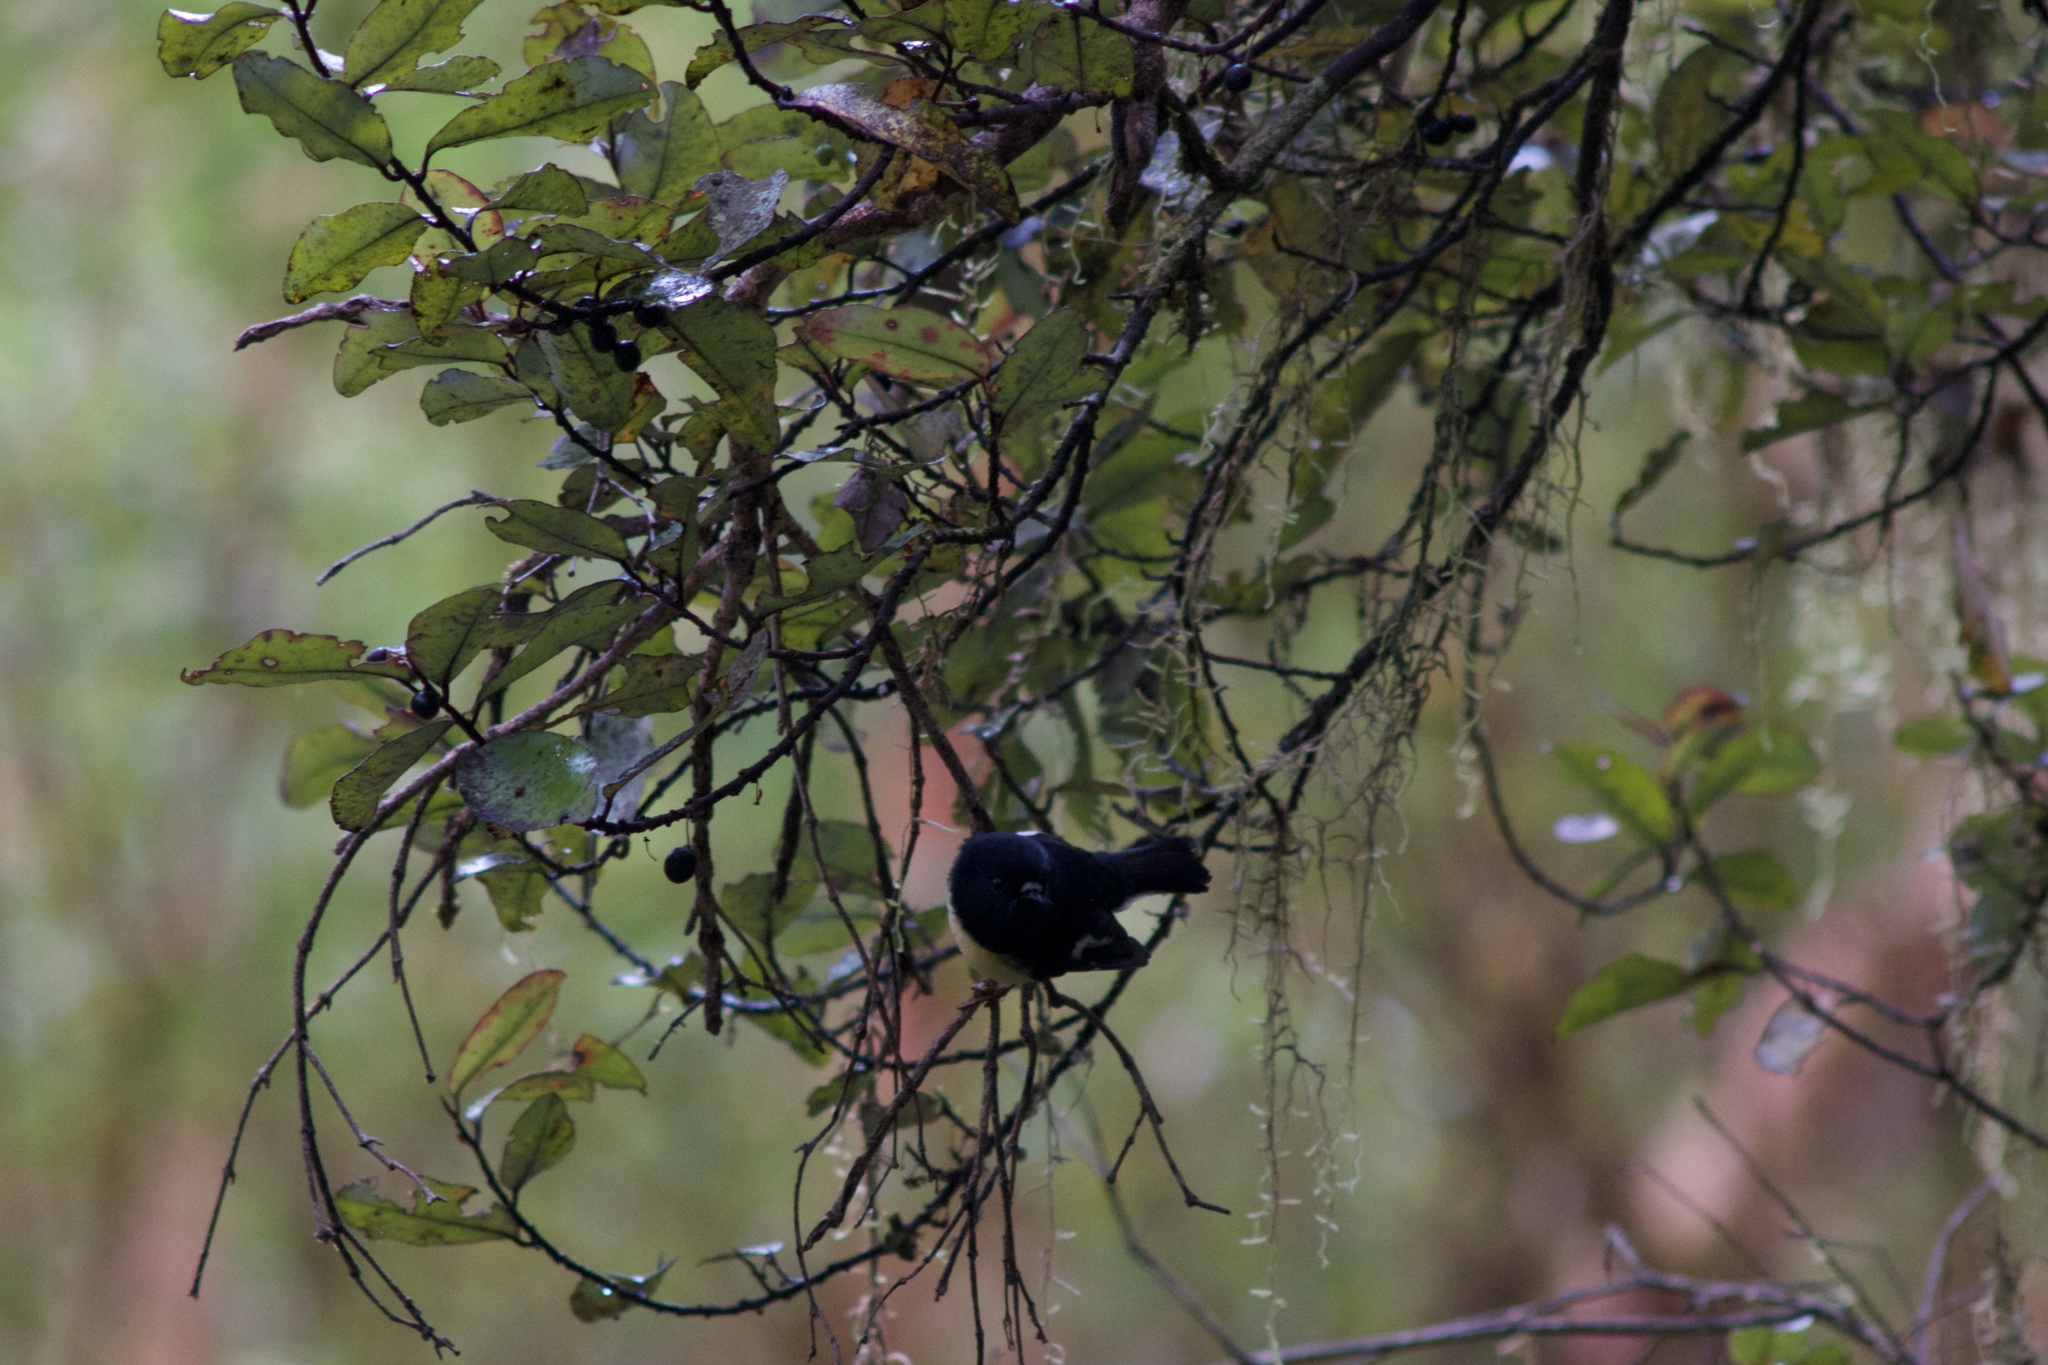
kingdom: Plantae
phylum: Tracheophyta
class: Magnoliopsida
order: Canellales
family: Winteraceae
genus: Pseudowintera
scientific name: Pseudowintera colorata
